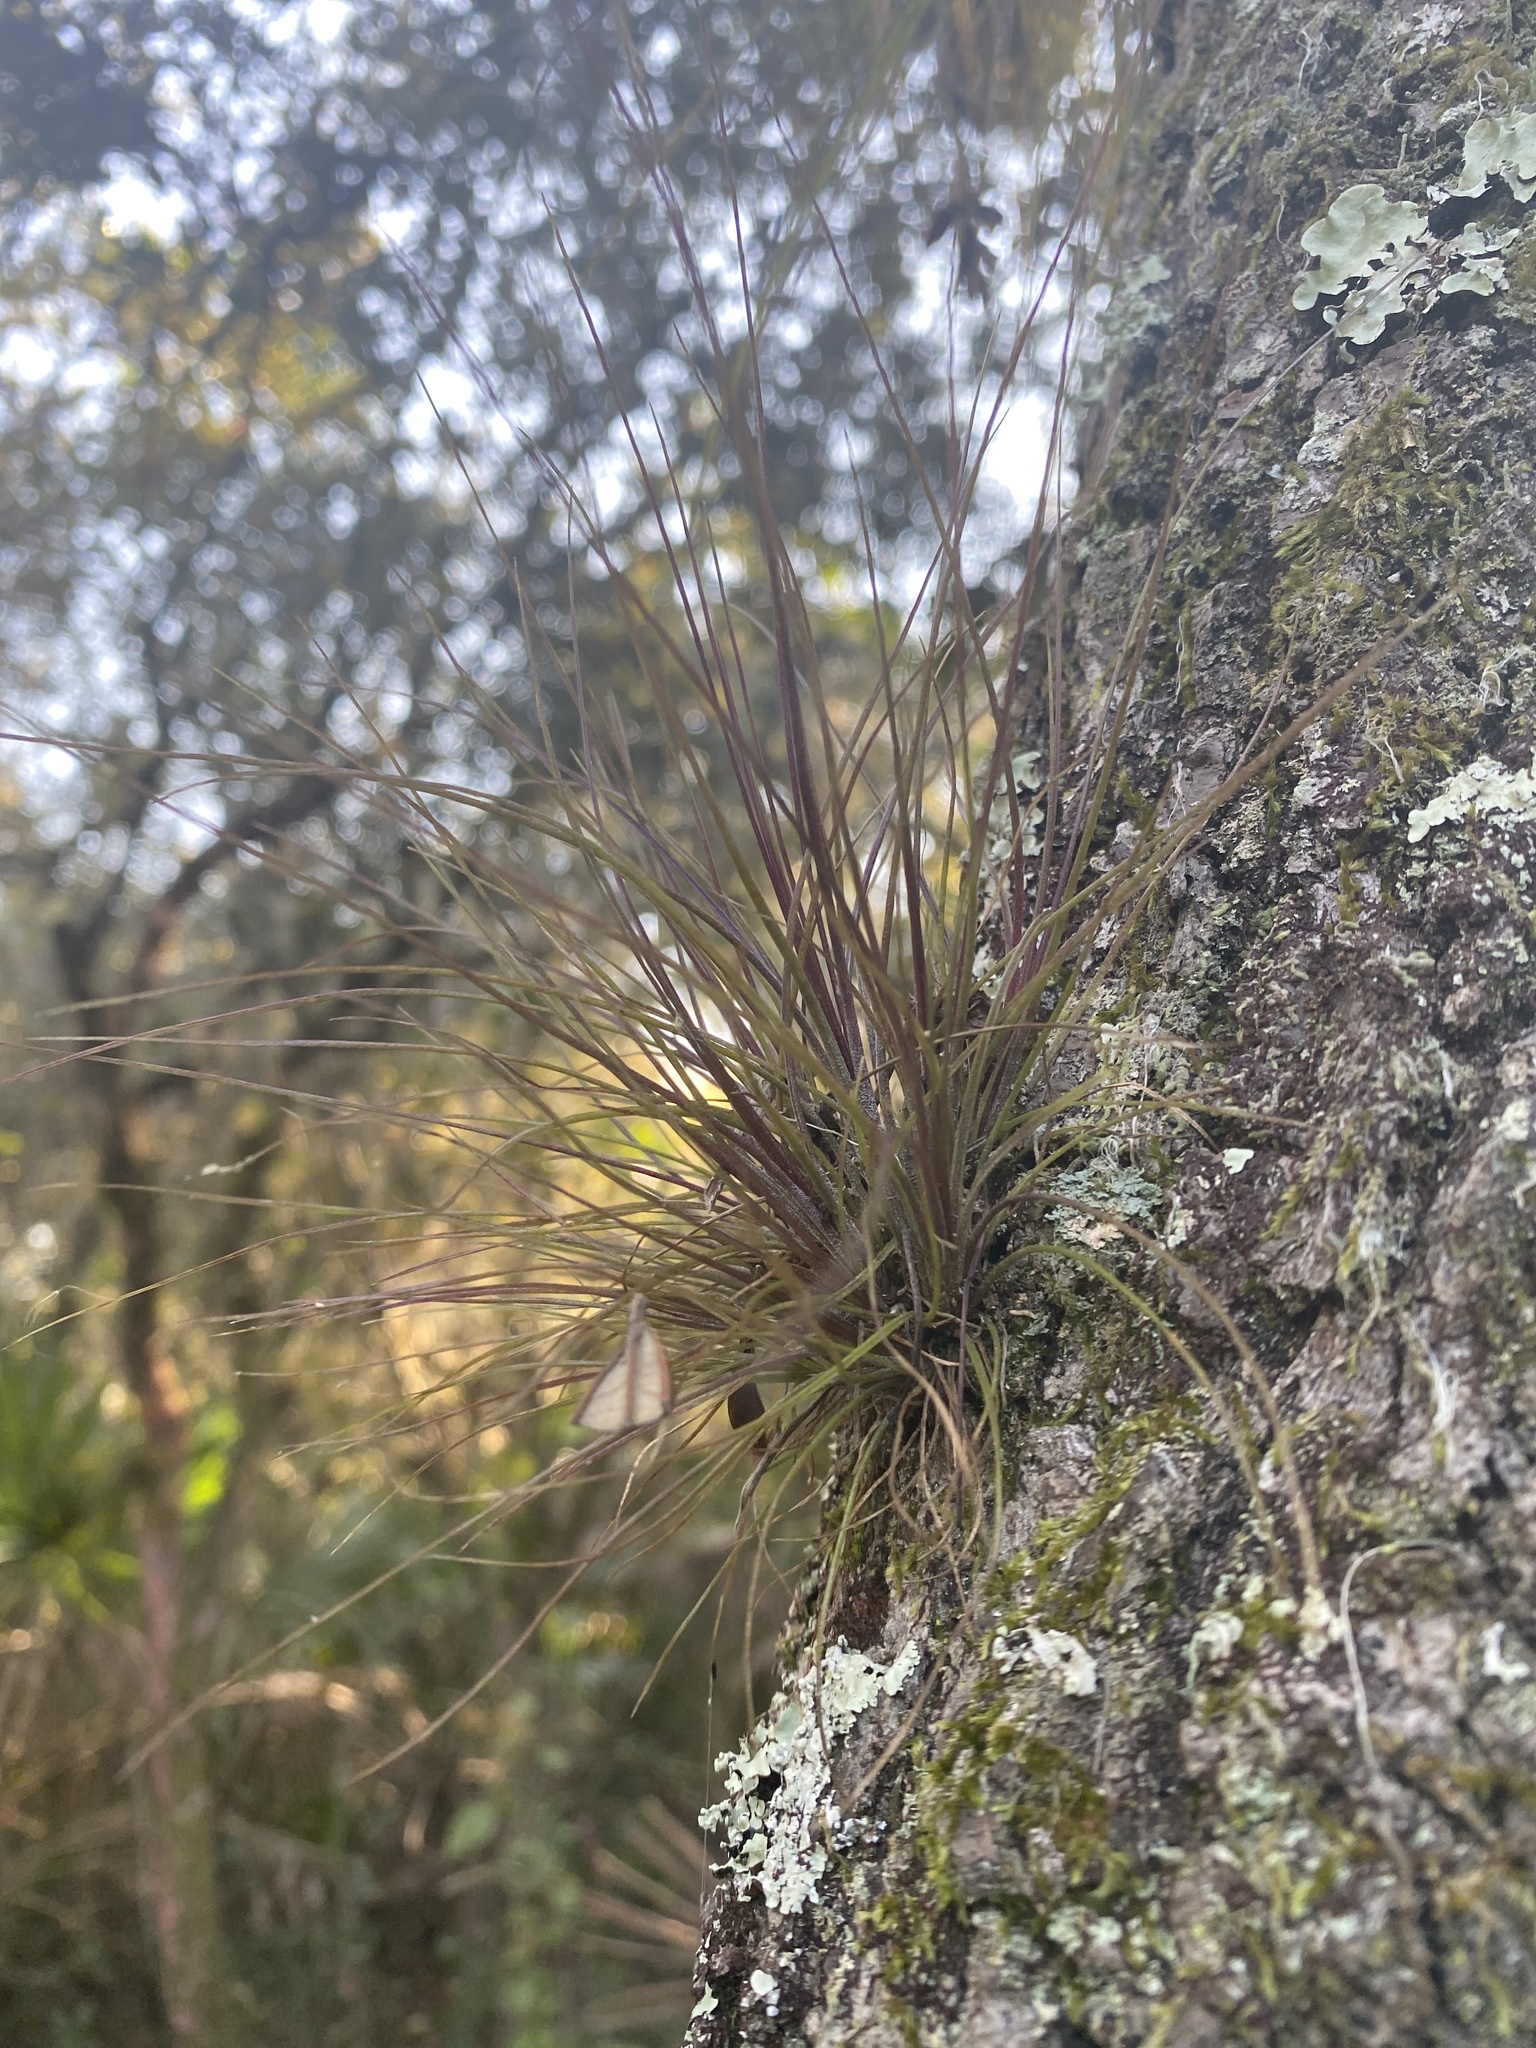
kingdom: Plantae
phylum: Tracheophyta
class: Liliopsida
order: Poales
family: Bromeliaceae
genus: Tillandsia
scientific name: Tillandsia setacea
